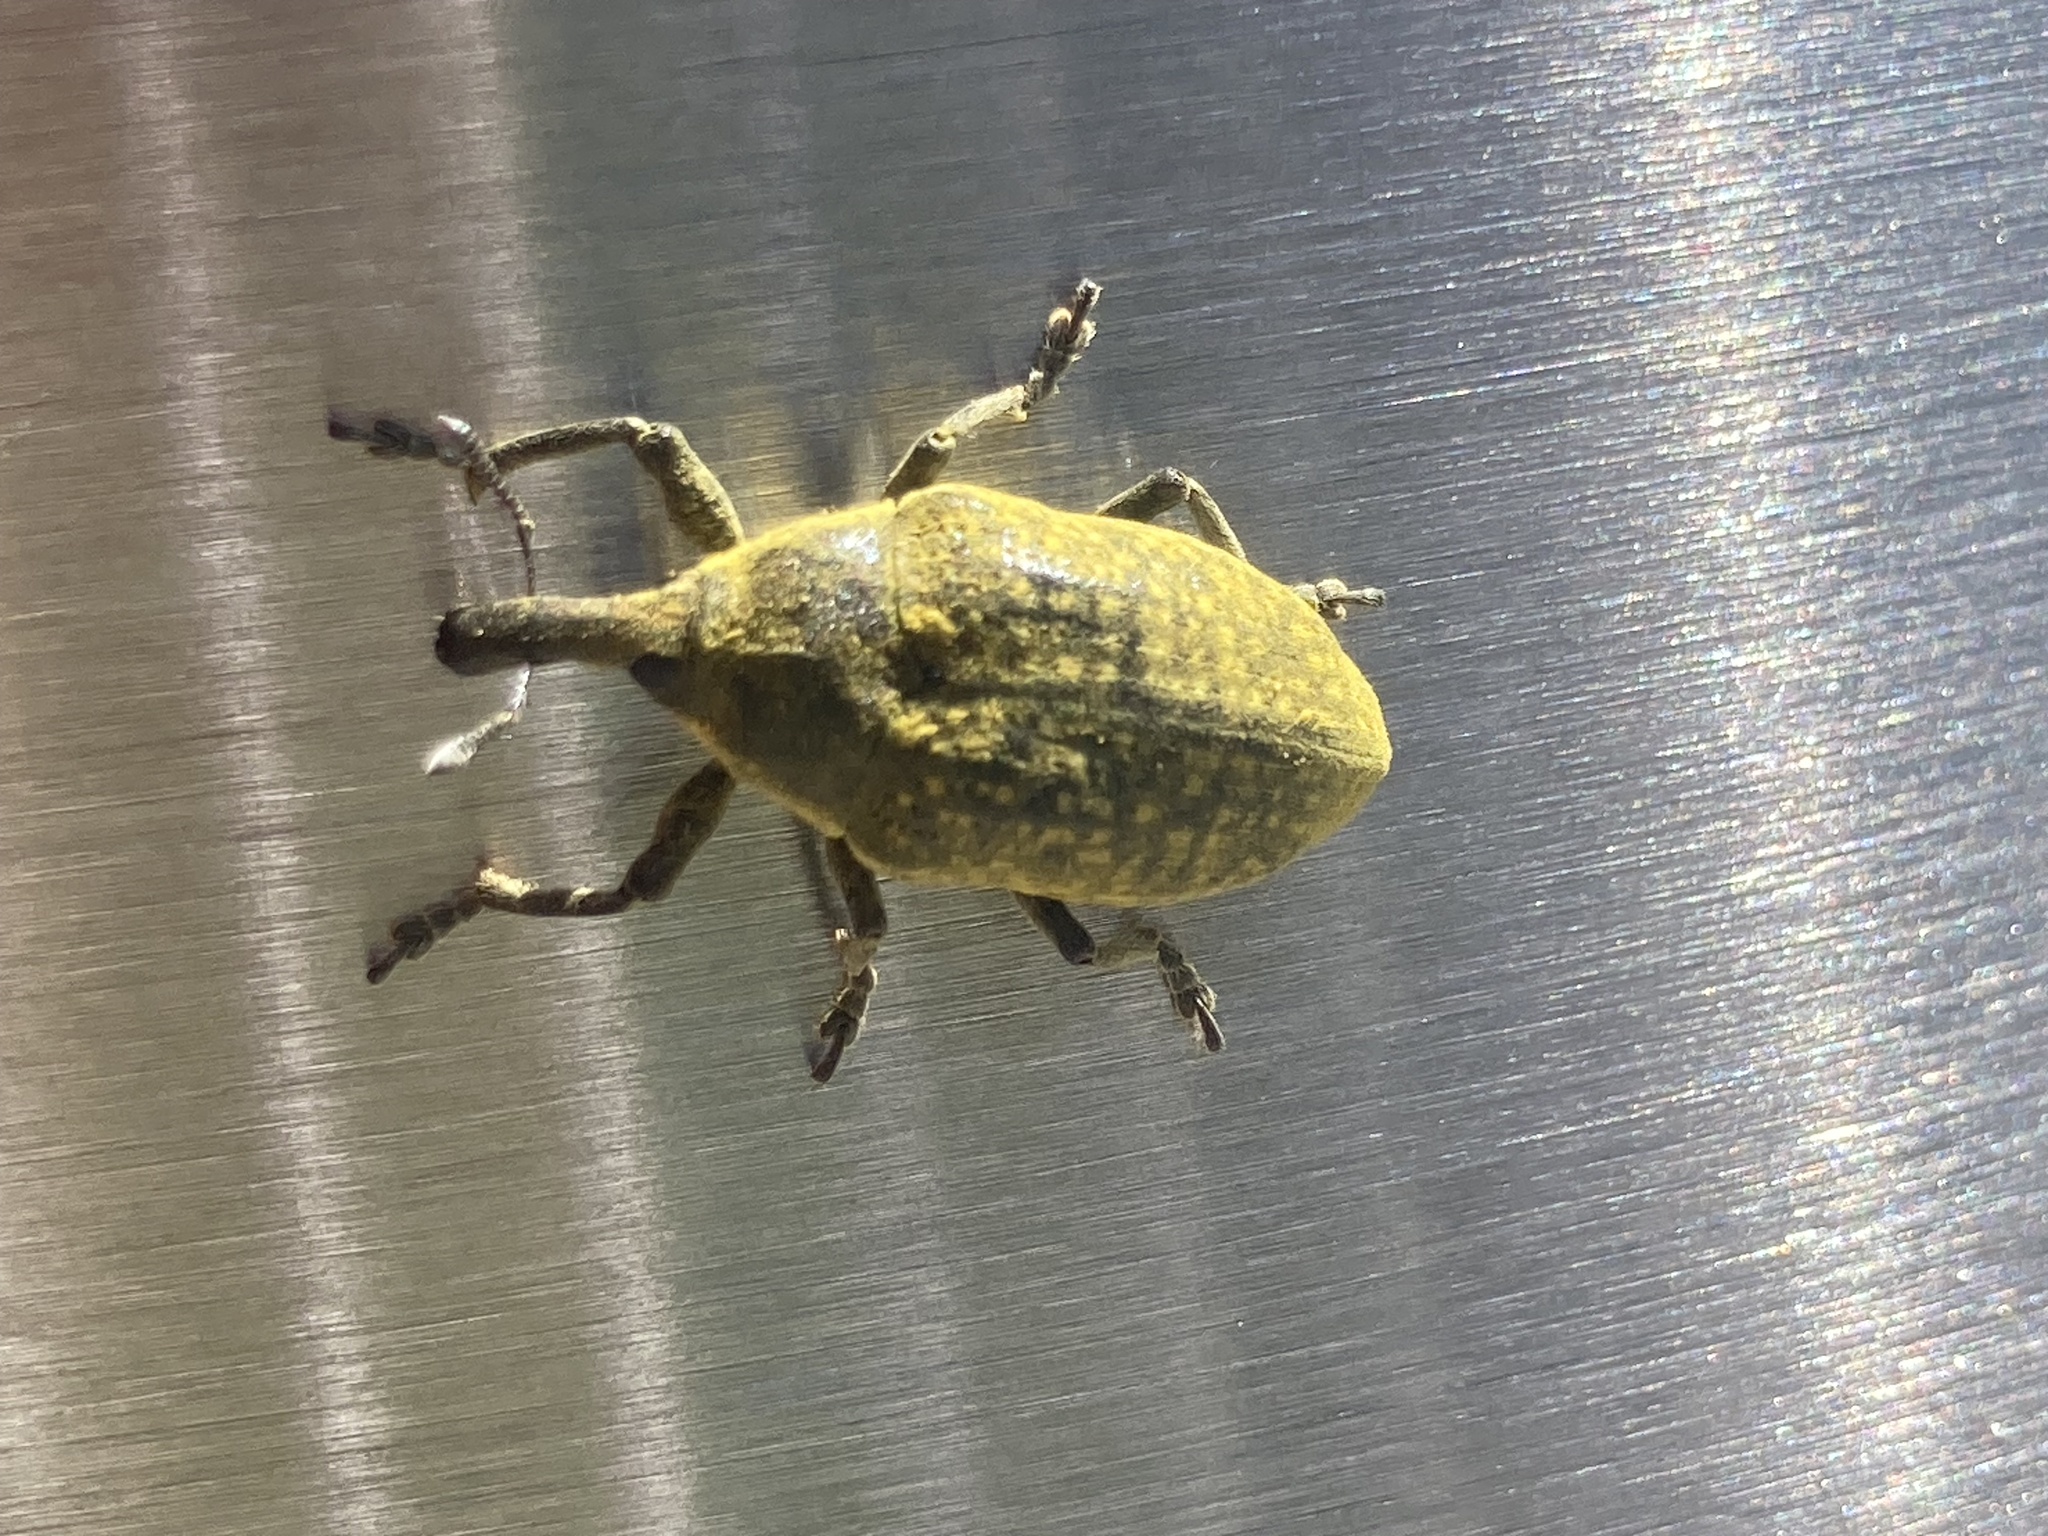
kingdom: Animalia
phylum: Arthropoda
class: Insecta
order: Coleoptera
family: Curculionidae
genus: Larinus
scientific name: Larinus latus
